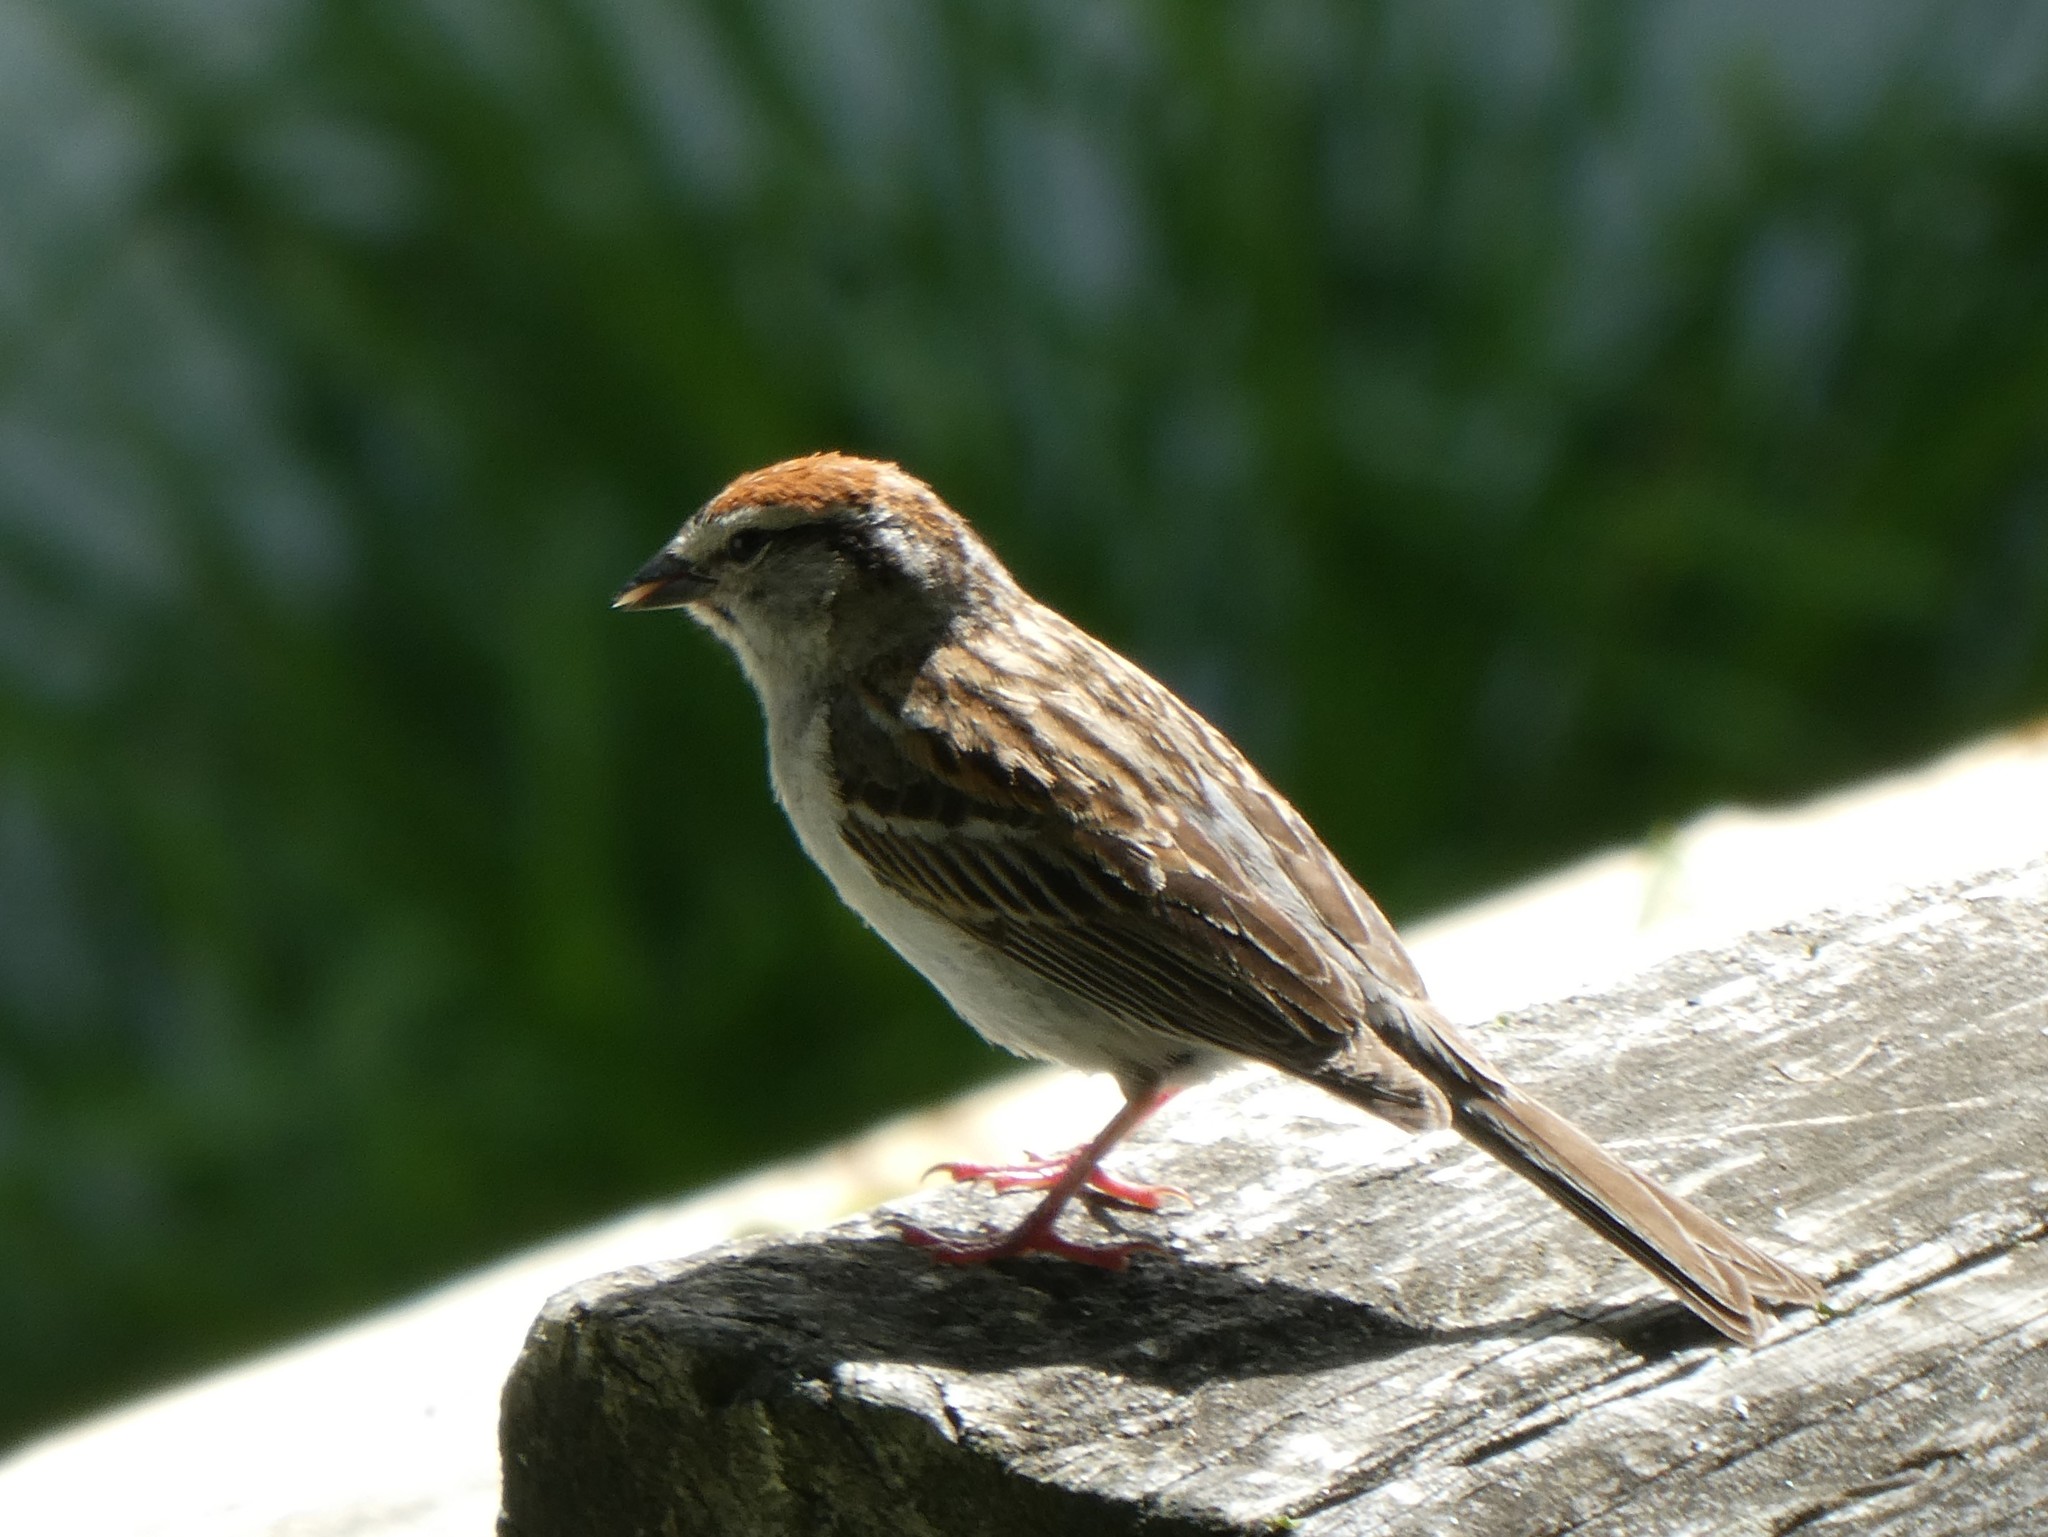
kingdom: Animalia
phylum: Chordata
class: Aves
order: Passeriformes
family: Passerellidae
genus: Spizella
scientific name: Spizella passerina
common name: Chipping sparrow
